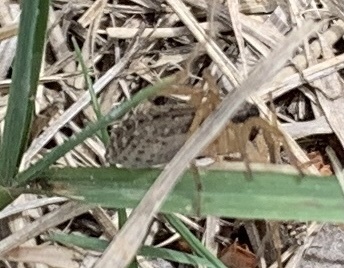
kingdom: Animalia
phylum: Arthropoda
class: Arachnida
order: Araneae
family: Lycosidae
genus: Hogna
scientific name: Hogna graeca
